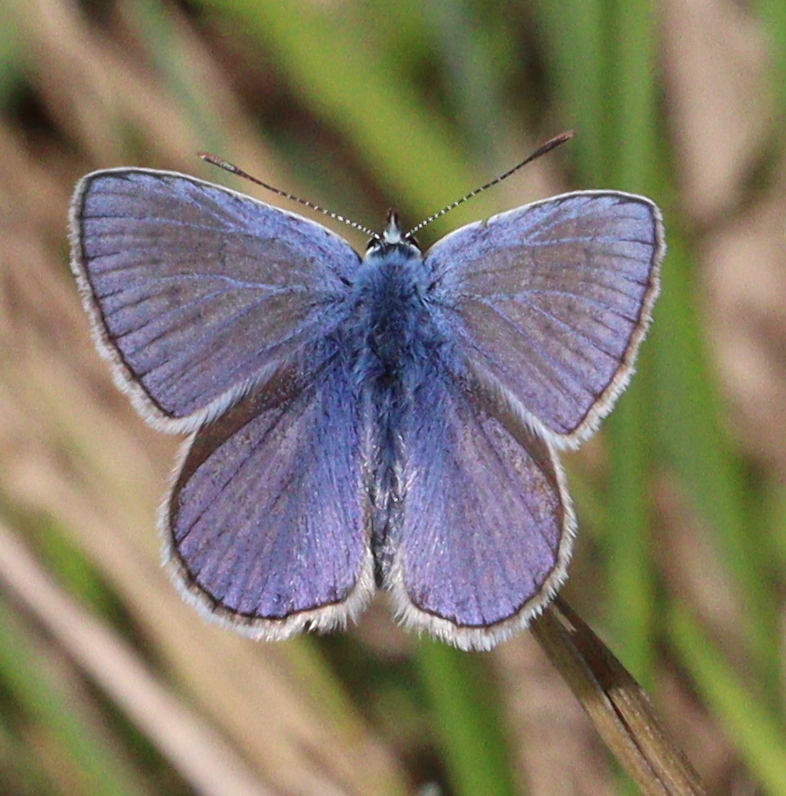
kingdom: Animalia
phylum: Arthropoda
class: Insecta
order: Lepidoptera
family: Lycaenidae
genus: Polyommatus
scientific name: Polyommatus icarus
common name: Common blue
